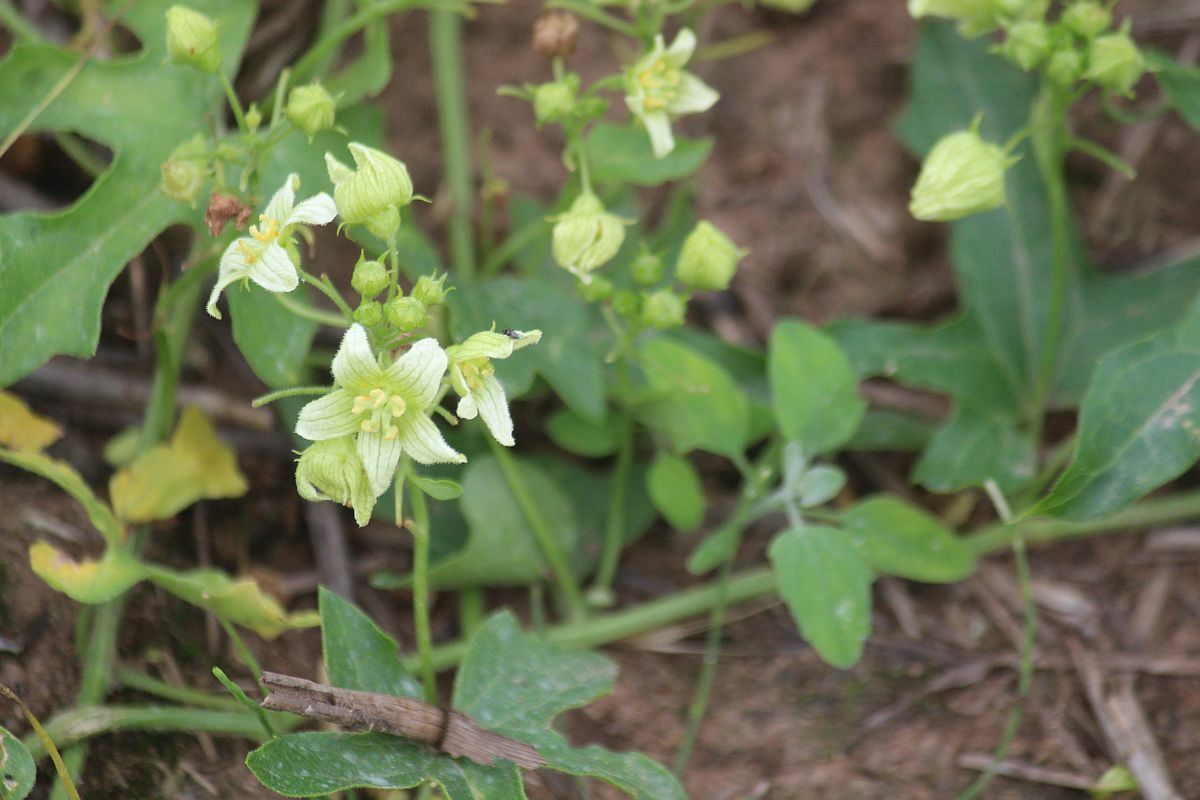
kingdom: Plantae
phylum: Tracheophyta
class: Magnoliopsida
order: Cucurbitales
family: Cucurbitaceae
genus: Bryonia
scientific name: Bryonia cretica
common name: Cretan bryony
